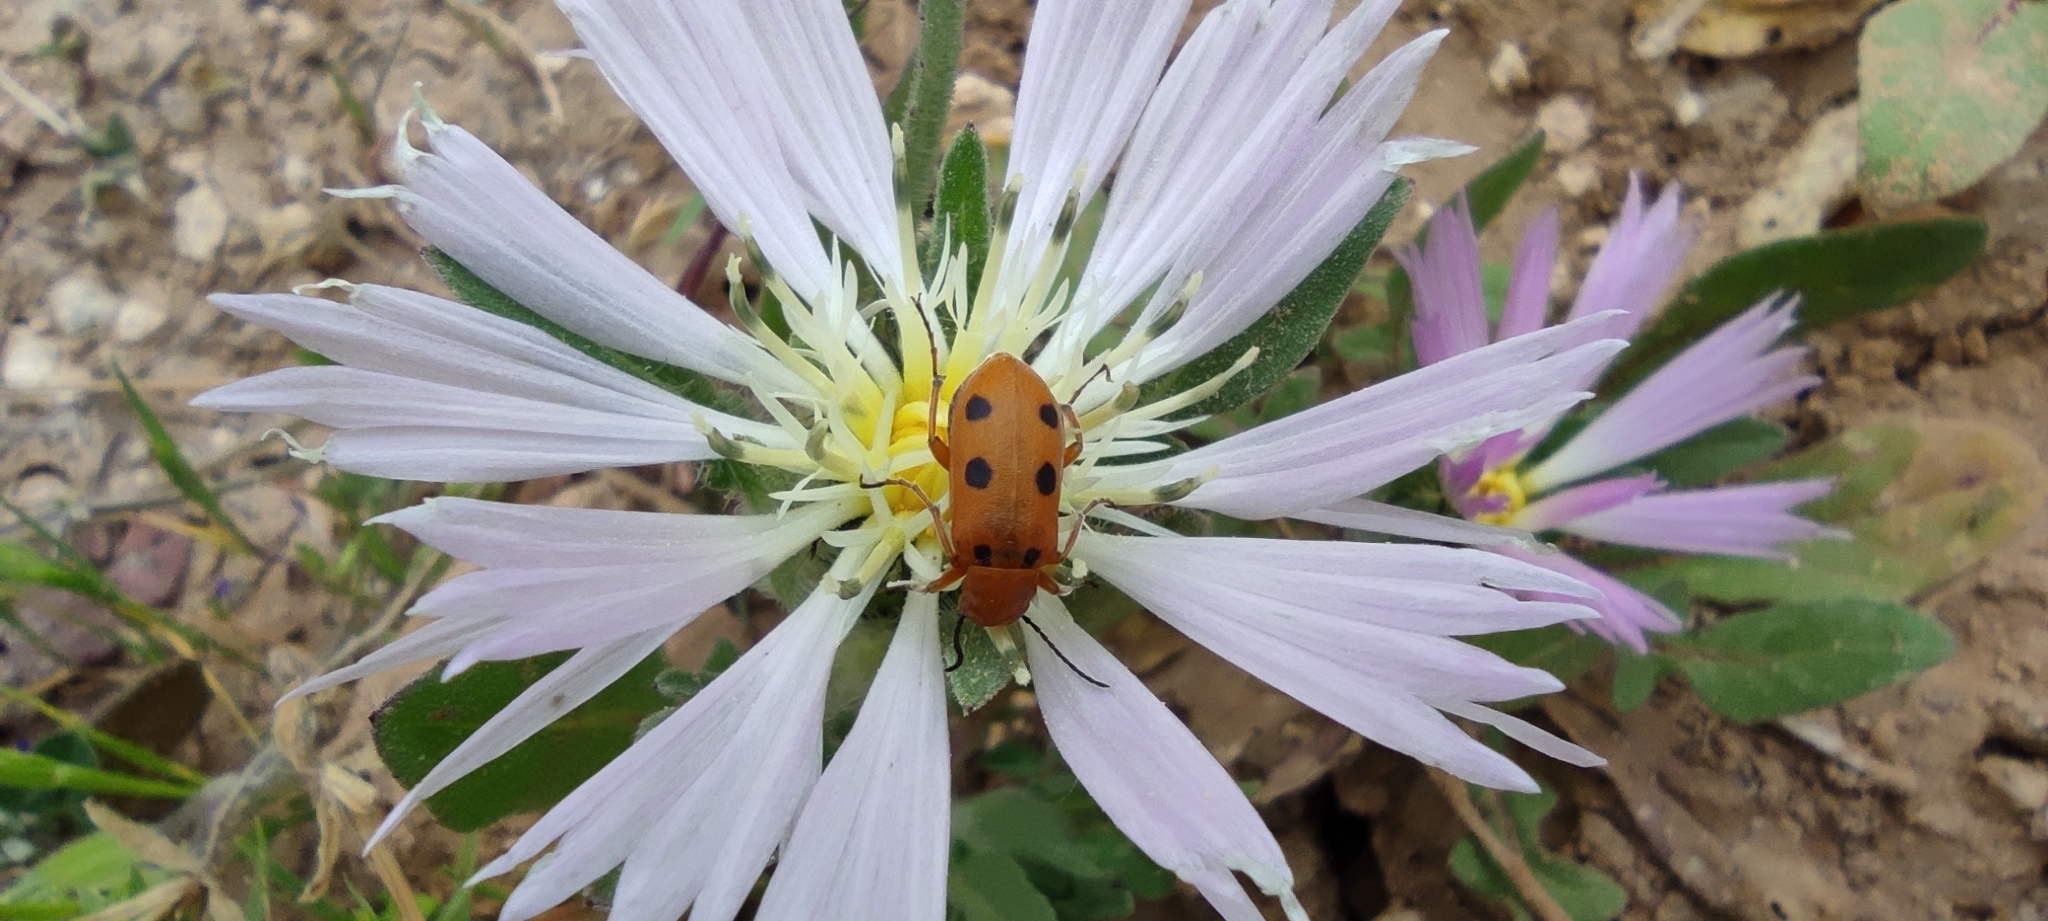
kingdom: Plantae
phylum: Tracheophyta
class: Magnoliopsida
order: Asterales
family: Asteraceae
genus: Centaurea
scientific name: Centaurea pullata
